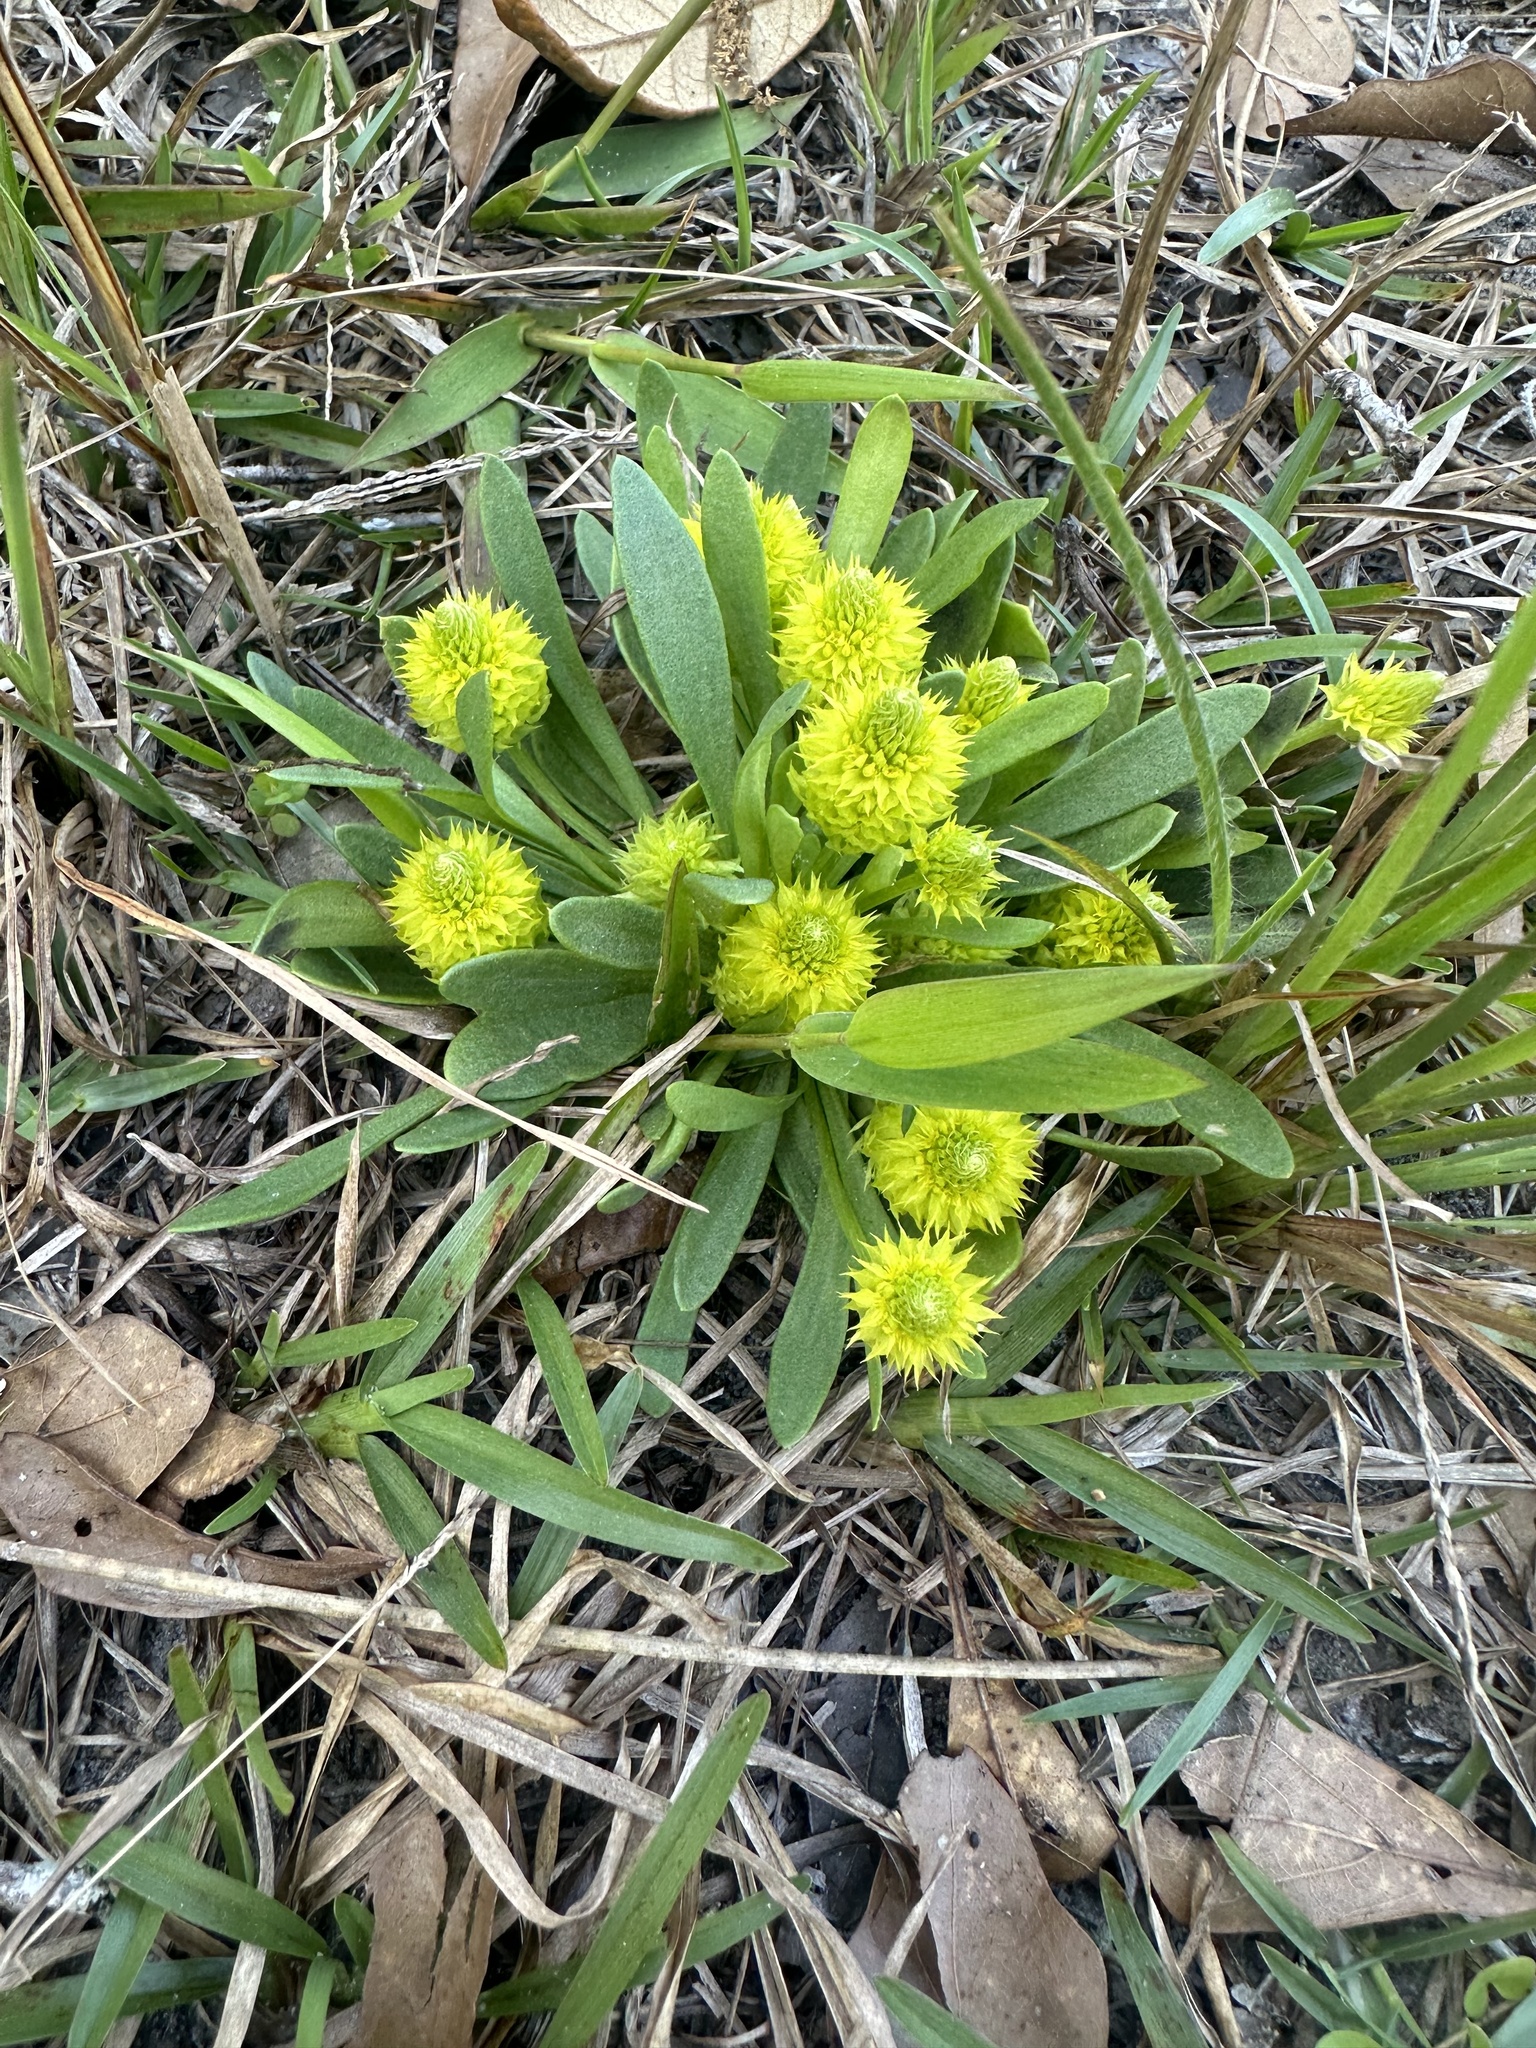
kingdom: Plantae
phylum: Tracheophyta
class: Magnoliopsida
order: Fabales
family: Polygalaceae
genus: Polygala
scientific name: Polygala nana
